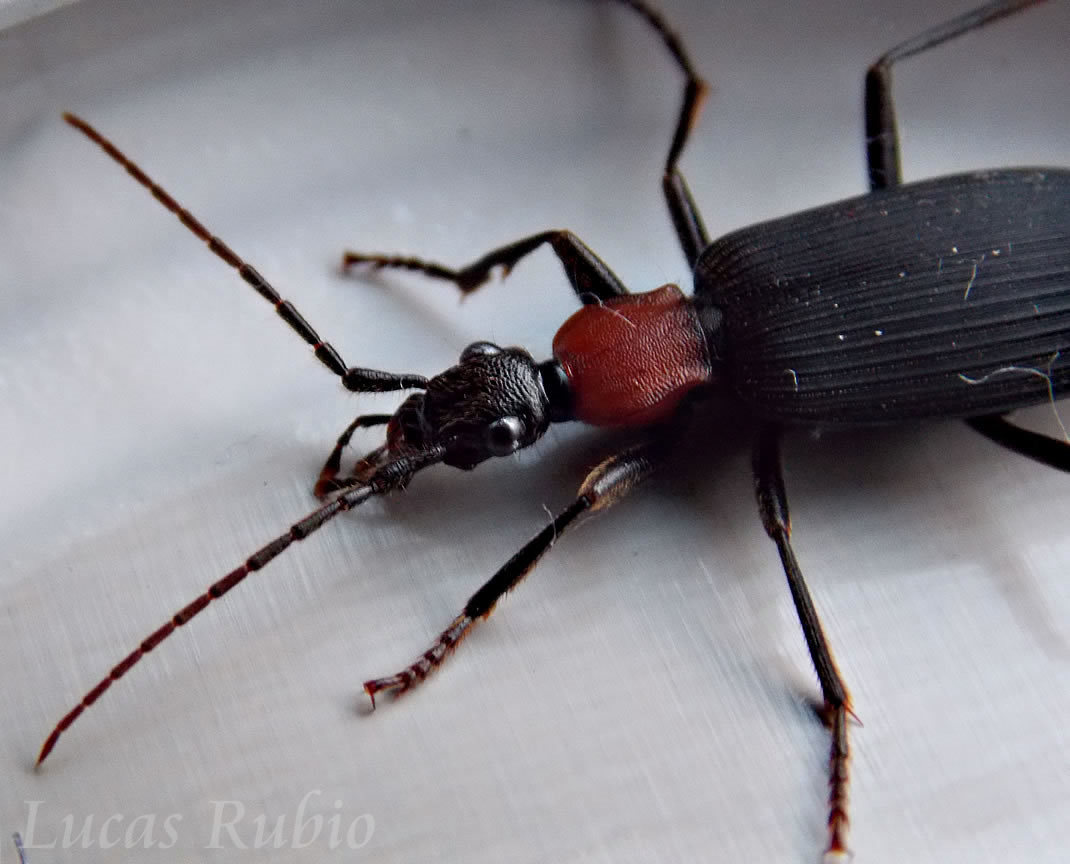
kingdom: Animalia
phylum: Arthropoda
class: Insecta
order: Coleoptera
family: Carabidae
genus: Galerita
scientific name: Galerita collaris
